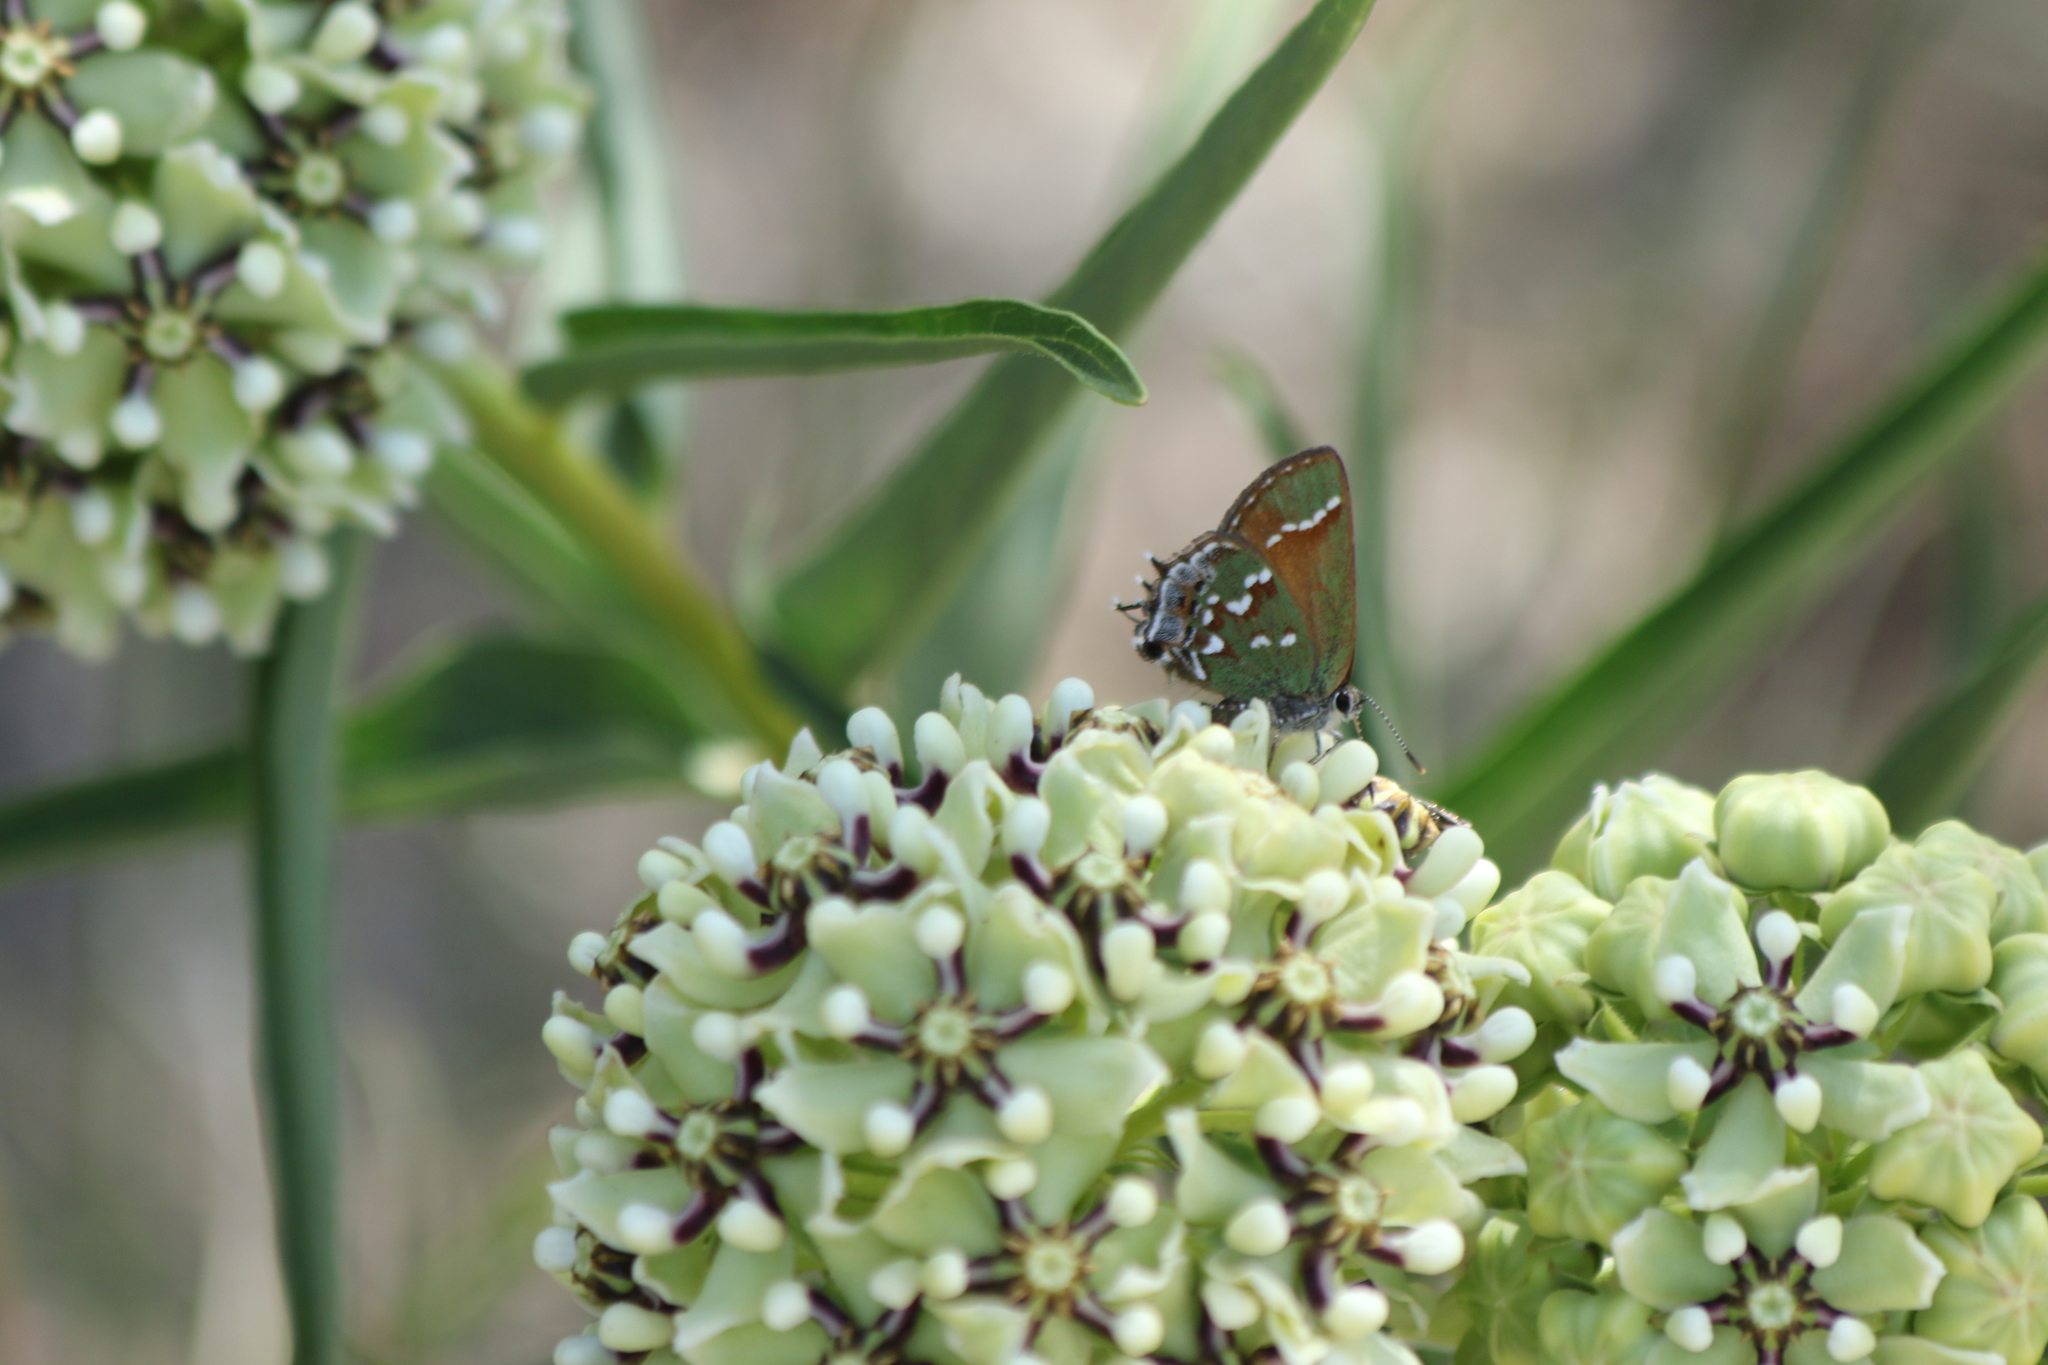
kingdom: Animalia
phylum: Arthropoda
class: Insecta
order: Lepidoptera
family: Lycaenidae
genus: Mitoura
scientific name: Mitoura gryneus
